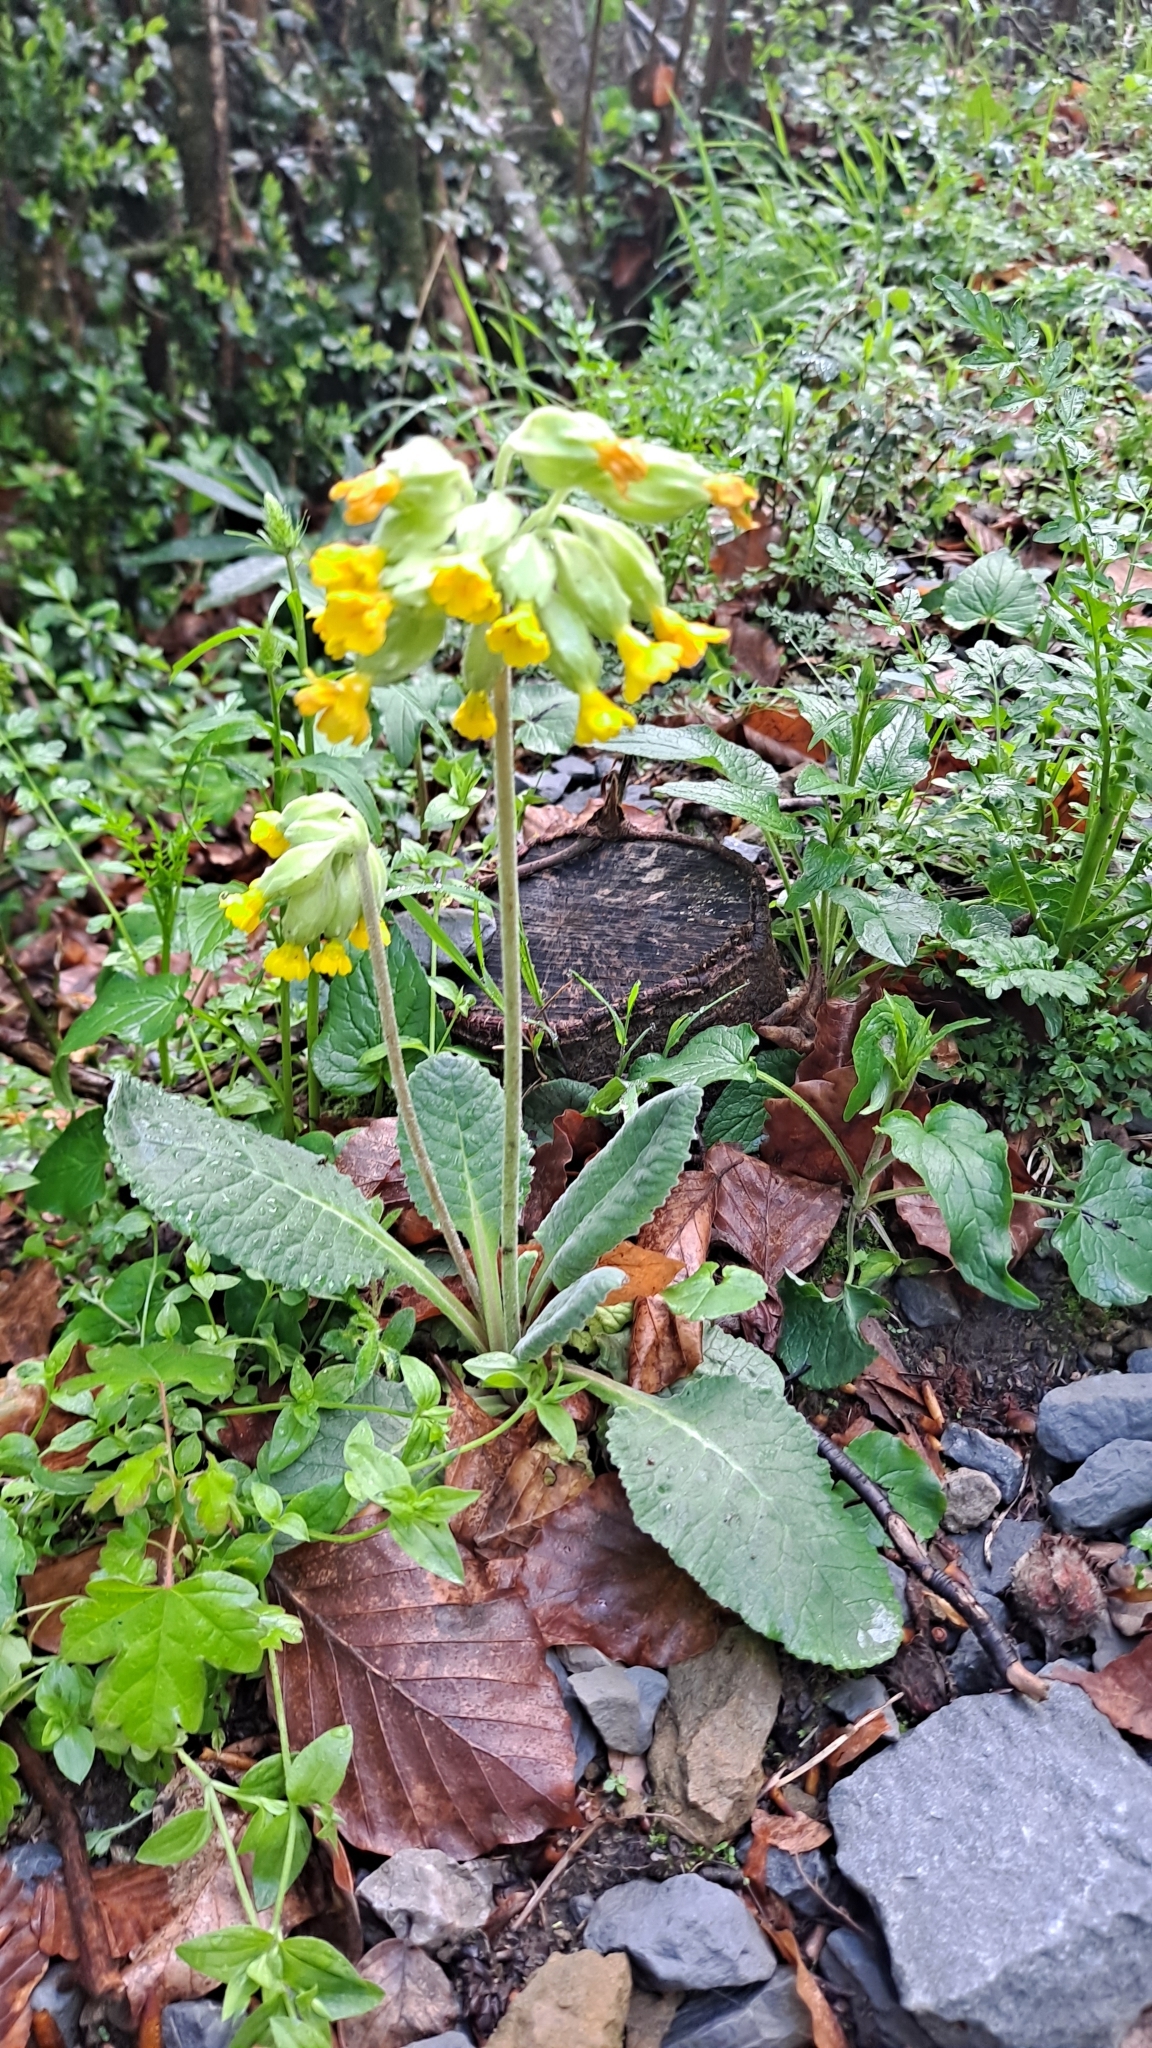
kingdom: Plantae
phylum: Tracheophyta
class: Magnoliopsida
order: Ericales
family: Primulaceae
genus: Primula
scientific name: Primula veris
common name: Cowslip
